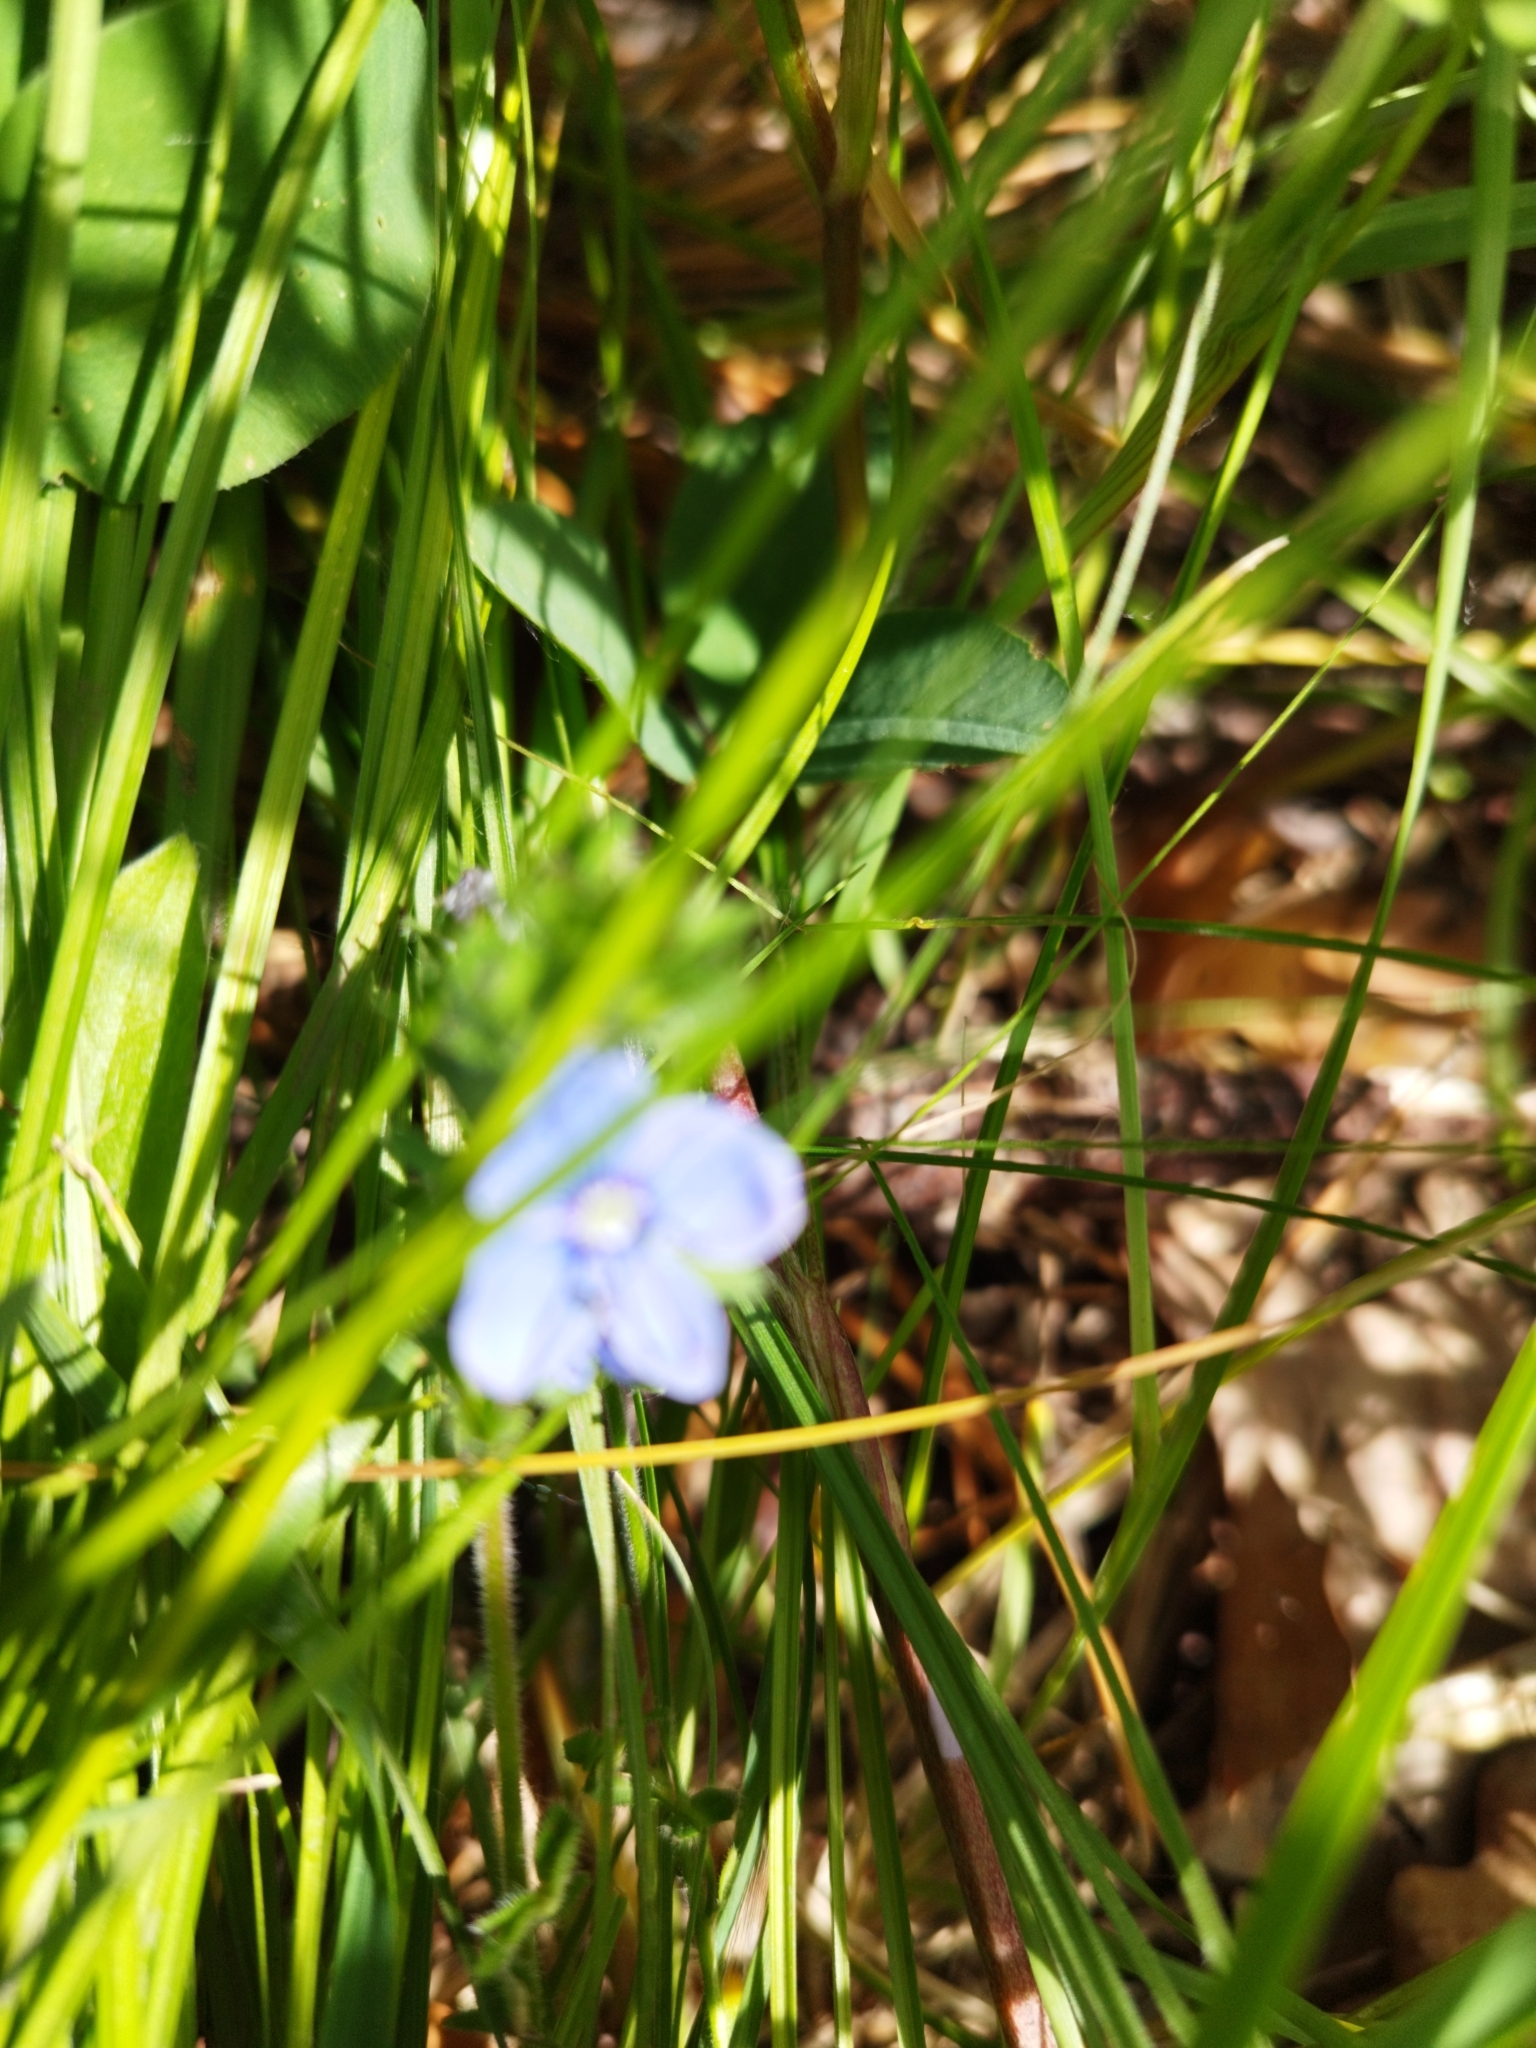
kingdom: Plantae
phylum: Tracheophyta
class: Magnoliopsida
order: Lamiales
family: Plantaginaceae
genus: Veronica
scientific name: Veronica chamaedrys
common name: Germander speedwell
